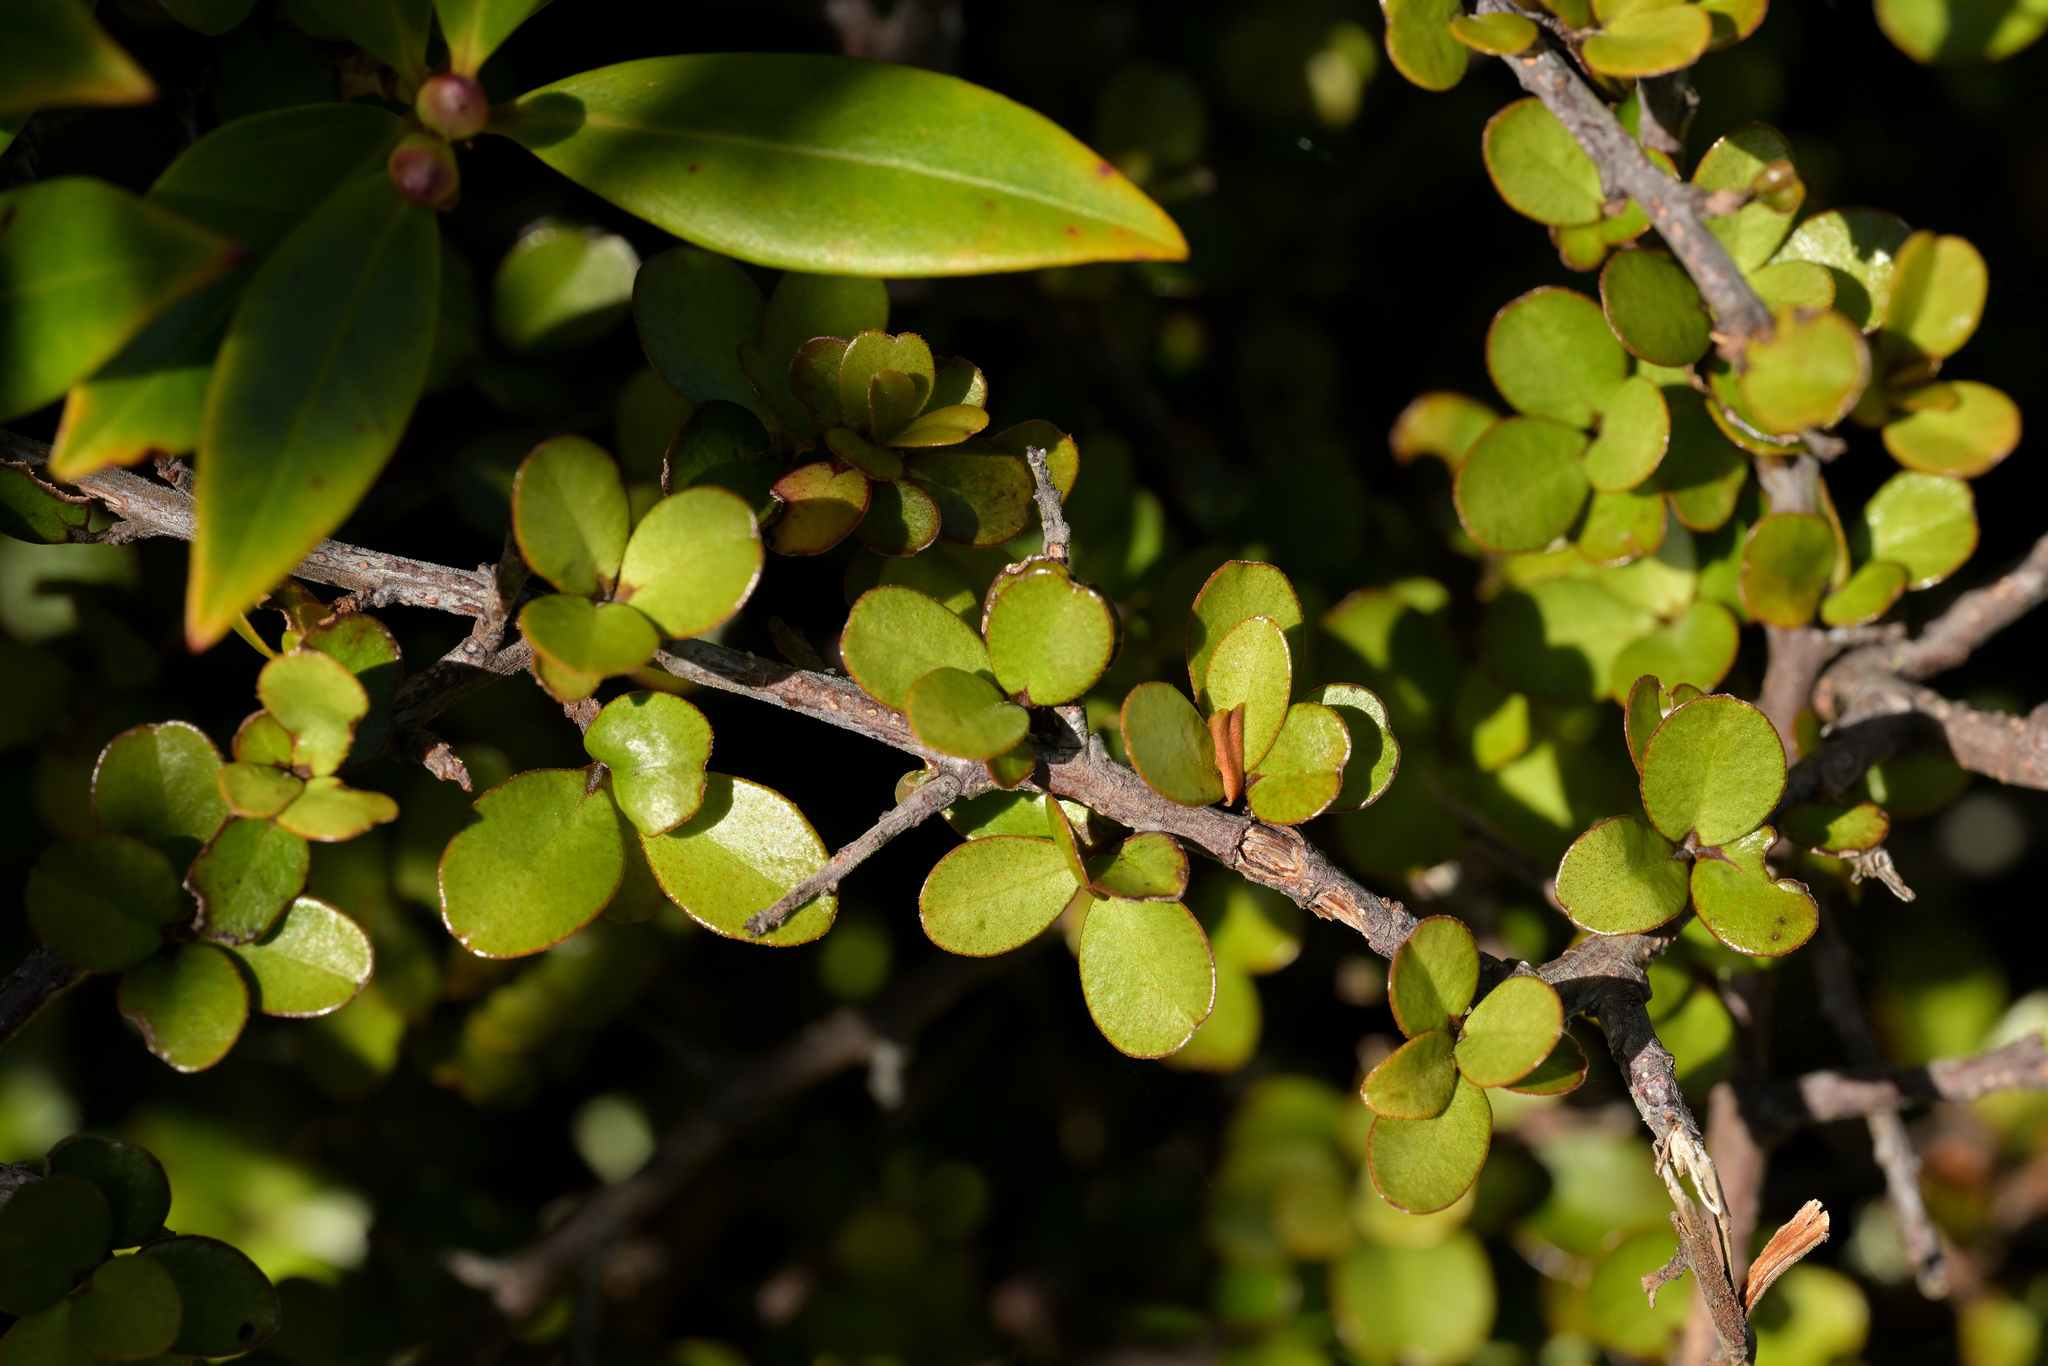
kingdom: Plantae
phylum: Tracheophyta
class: Magnoliopsida
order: Ericales
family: Primulaceae
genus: Myrsine
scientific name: Myrsine divaricata
